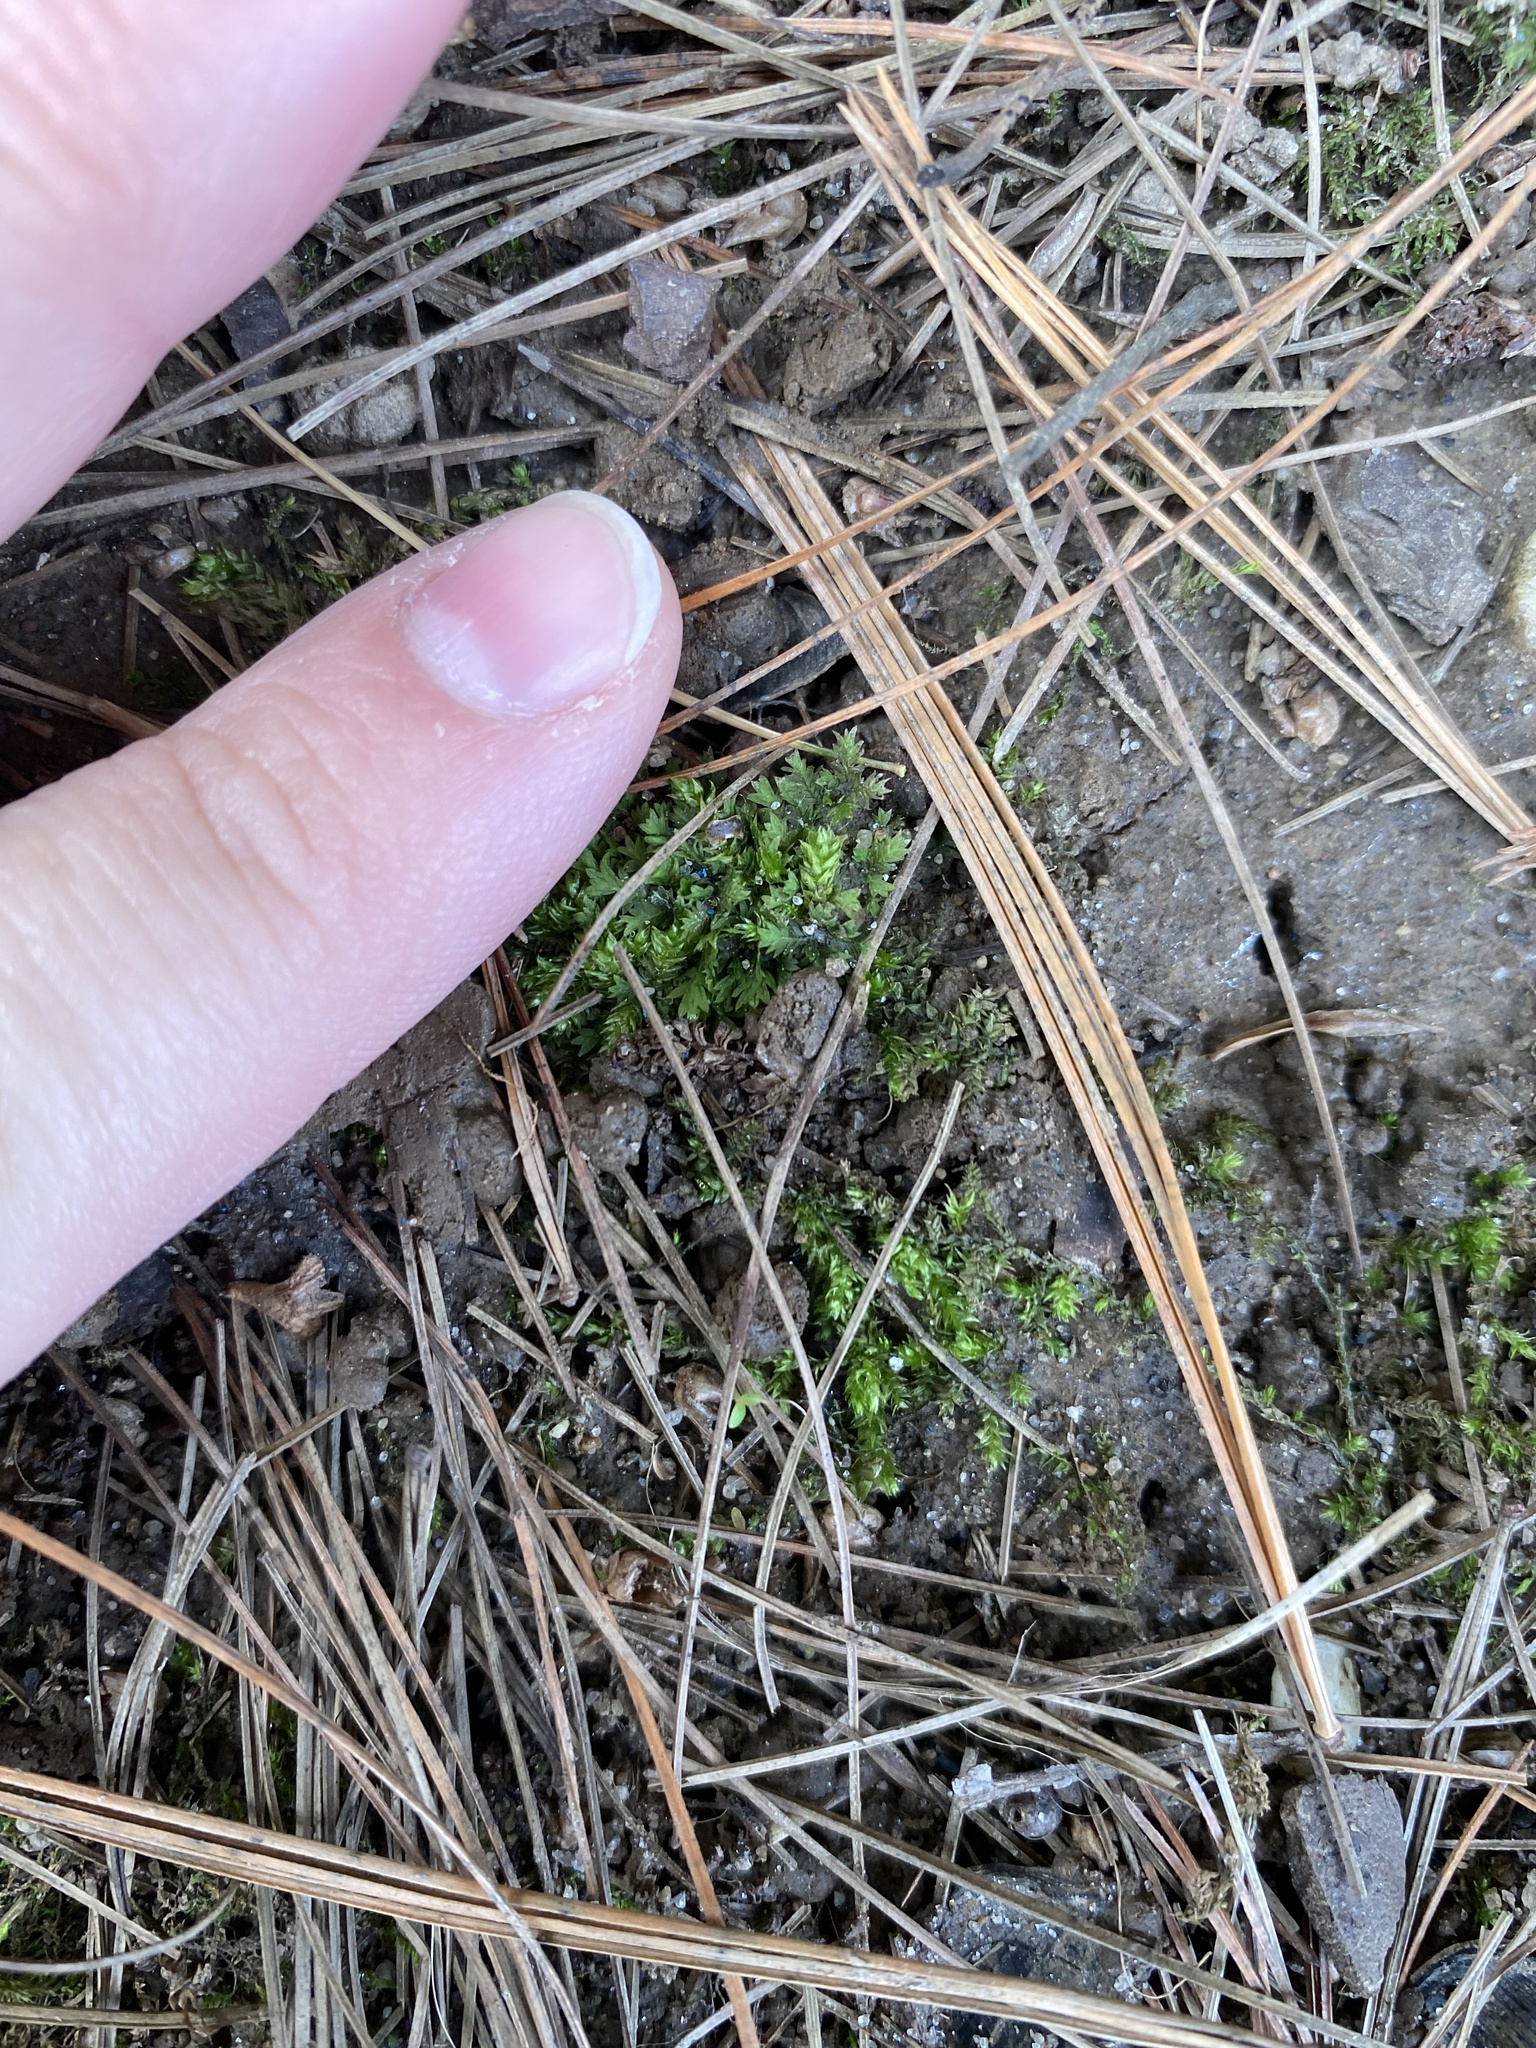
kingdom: Plantae
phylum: Bryophyta
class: Bryopsida
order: Dicranales
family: Fissidentaceae
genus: Fissidens
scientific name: Fissidens taxifolius
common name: Yew-leaved pocket moss
